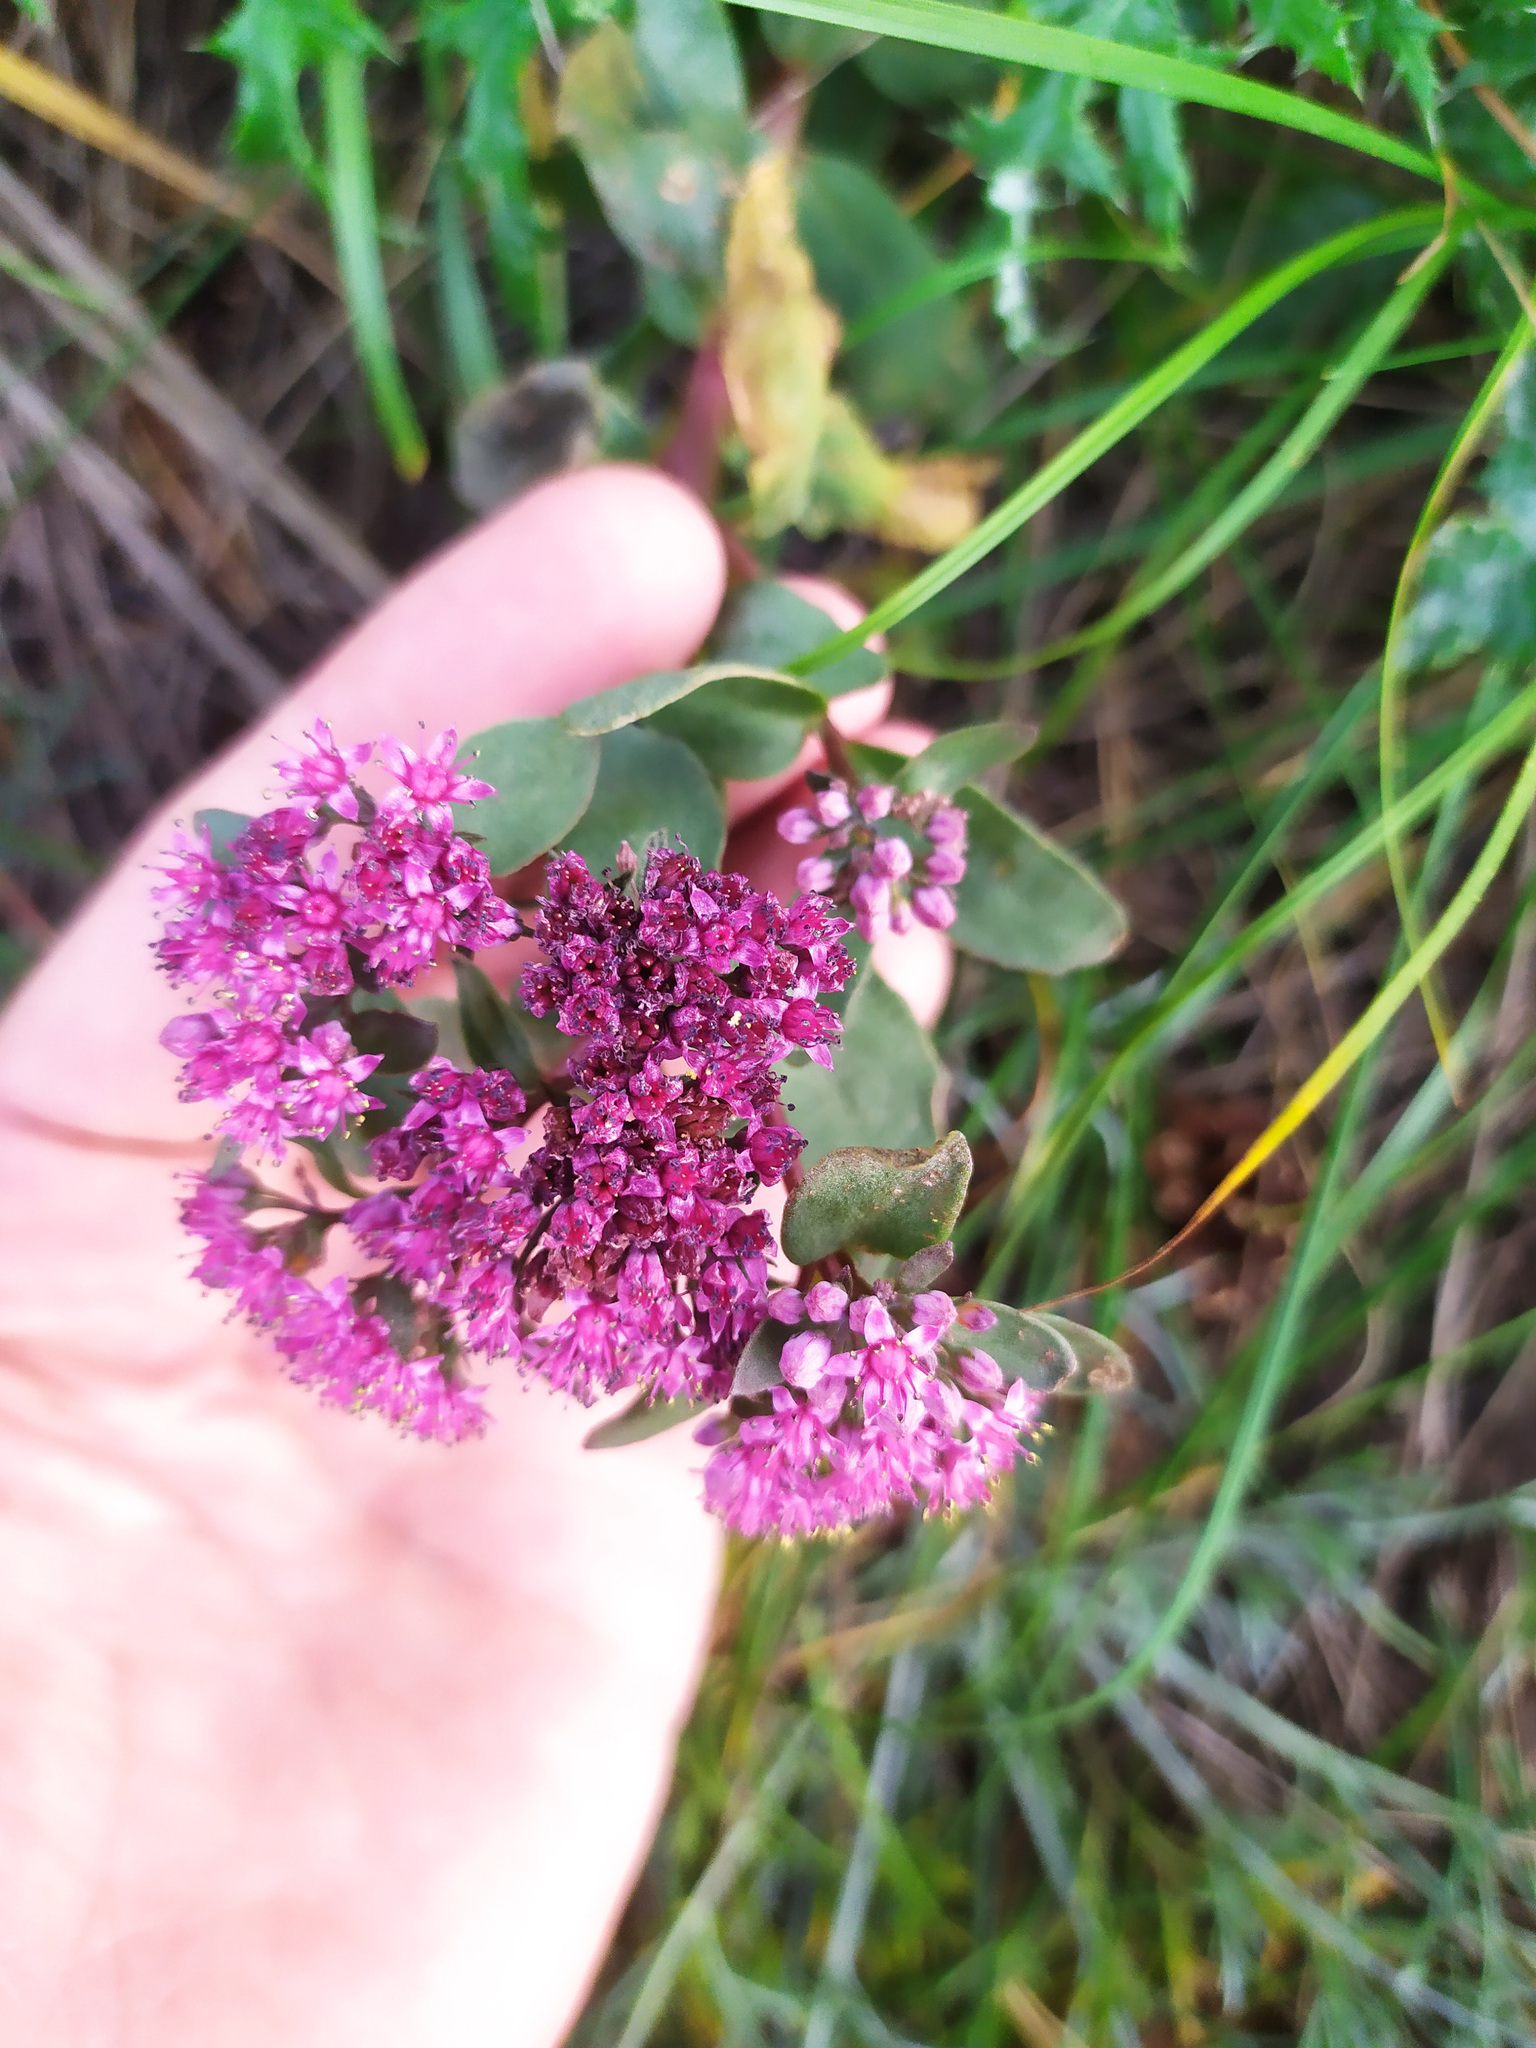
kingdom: Plantae
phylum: Tracheophyta
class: Magnoliopsida
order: Saxifragales
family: Crassulaceae
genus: Hylotelephium
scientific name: Hylotelephium telephium
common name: Live-forever
